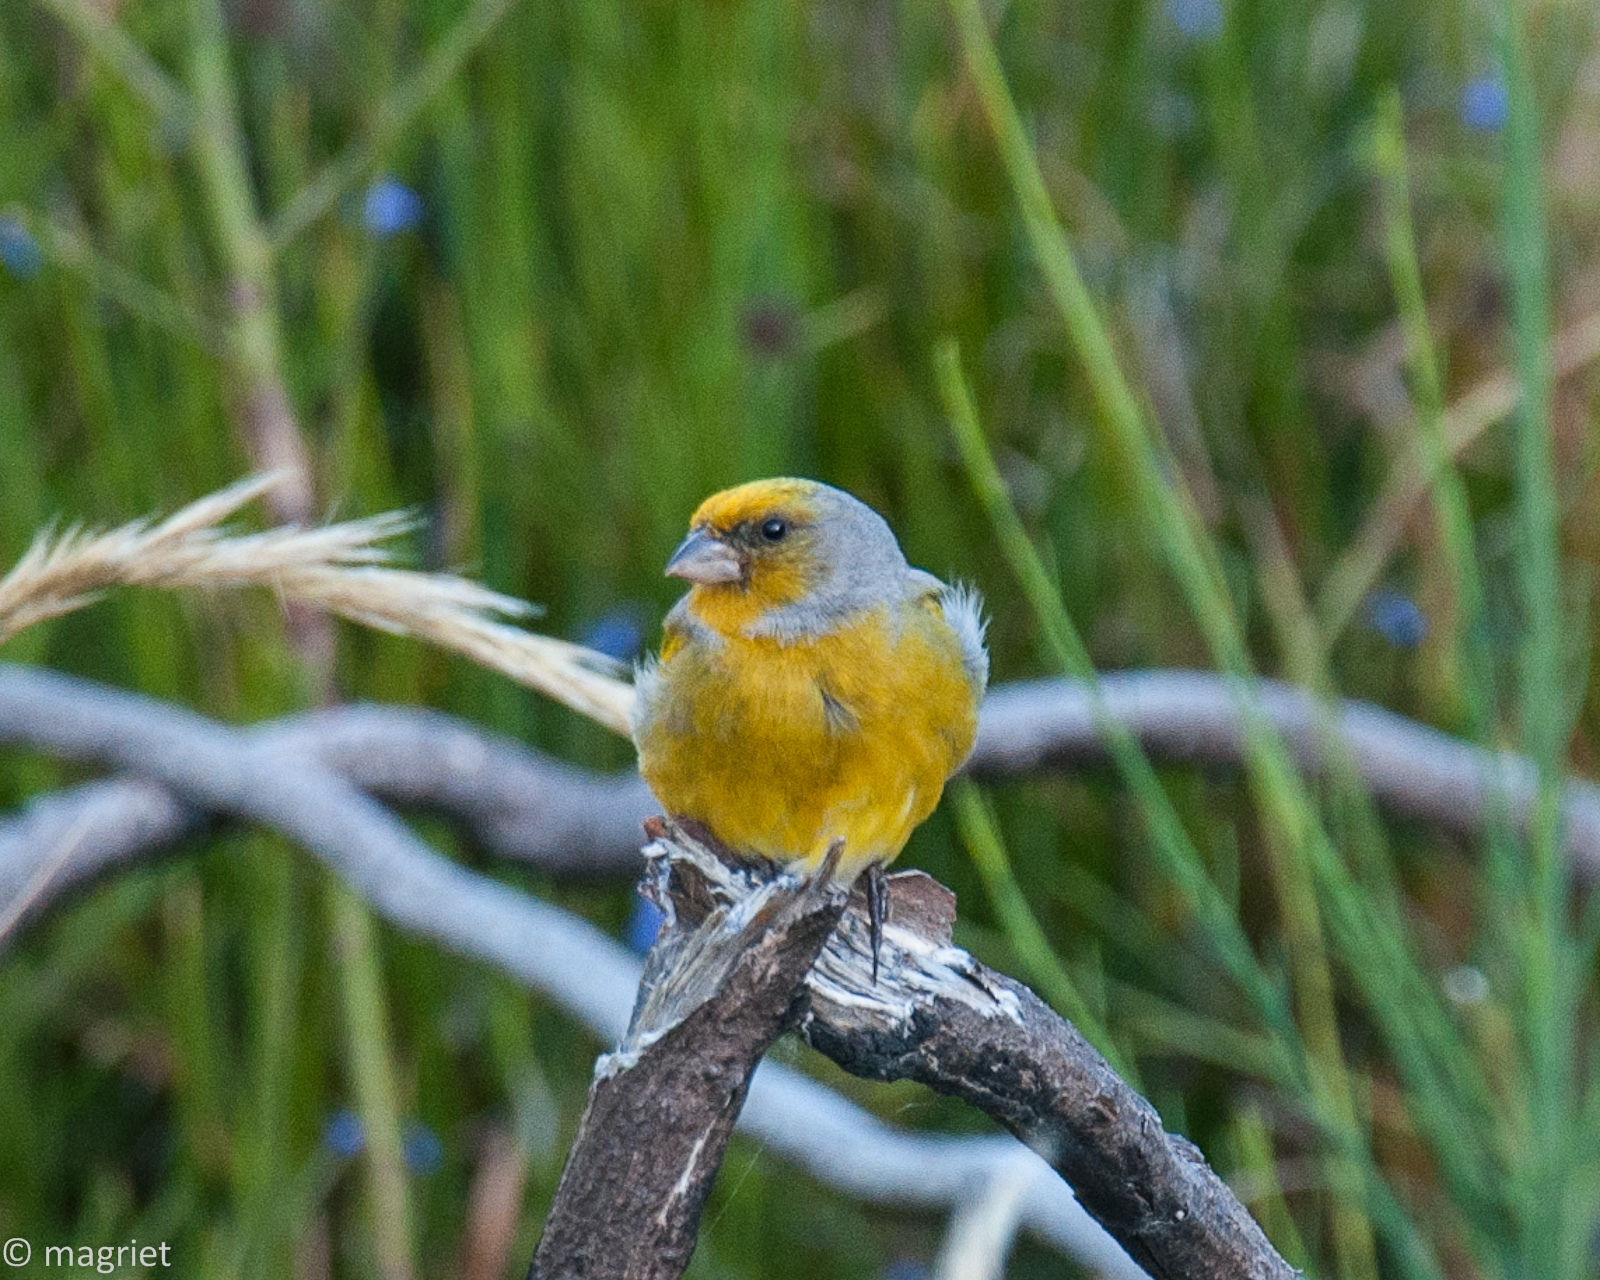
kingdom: Animalia
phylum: Chordata
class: Aves
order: Passeriformes
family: Fringillidae
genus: Serinus
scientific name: Serinus canicollis
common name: Cape canary
